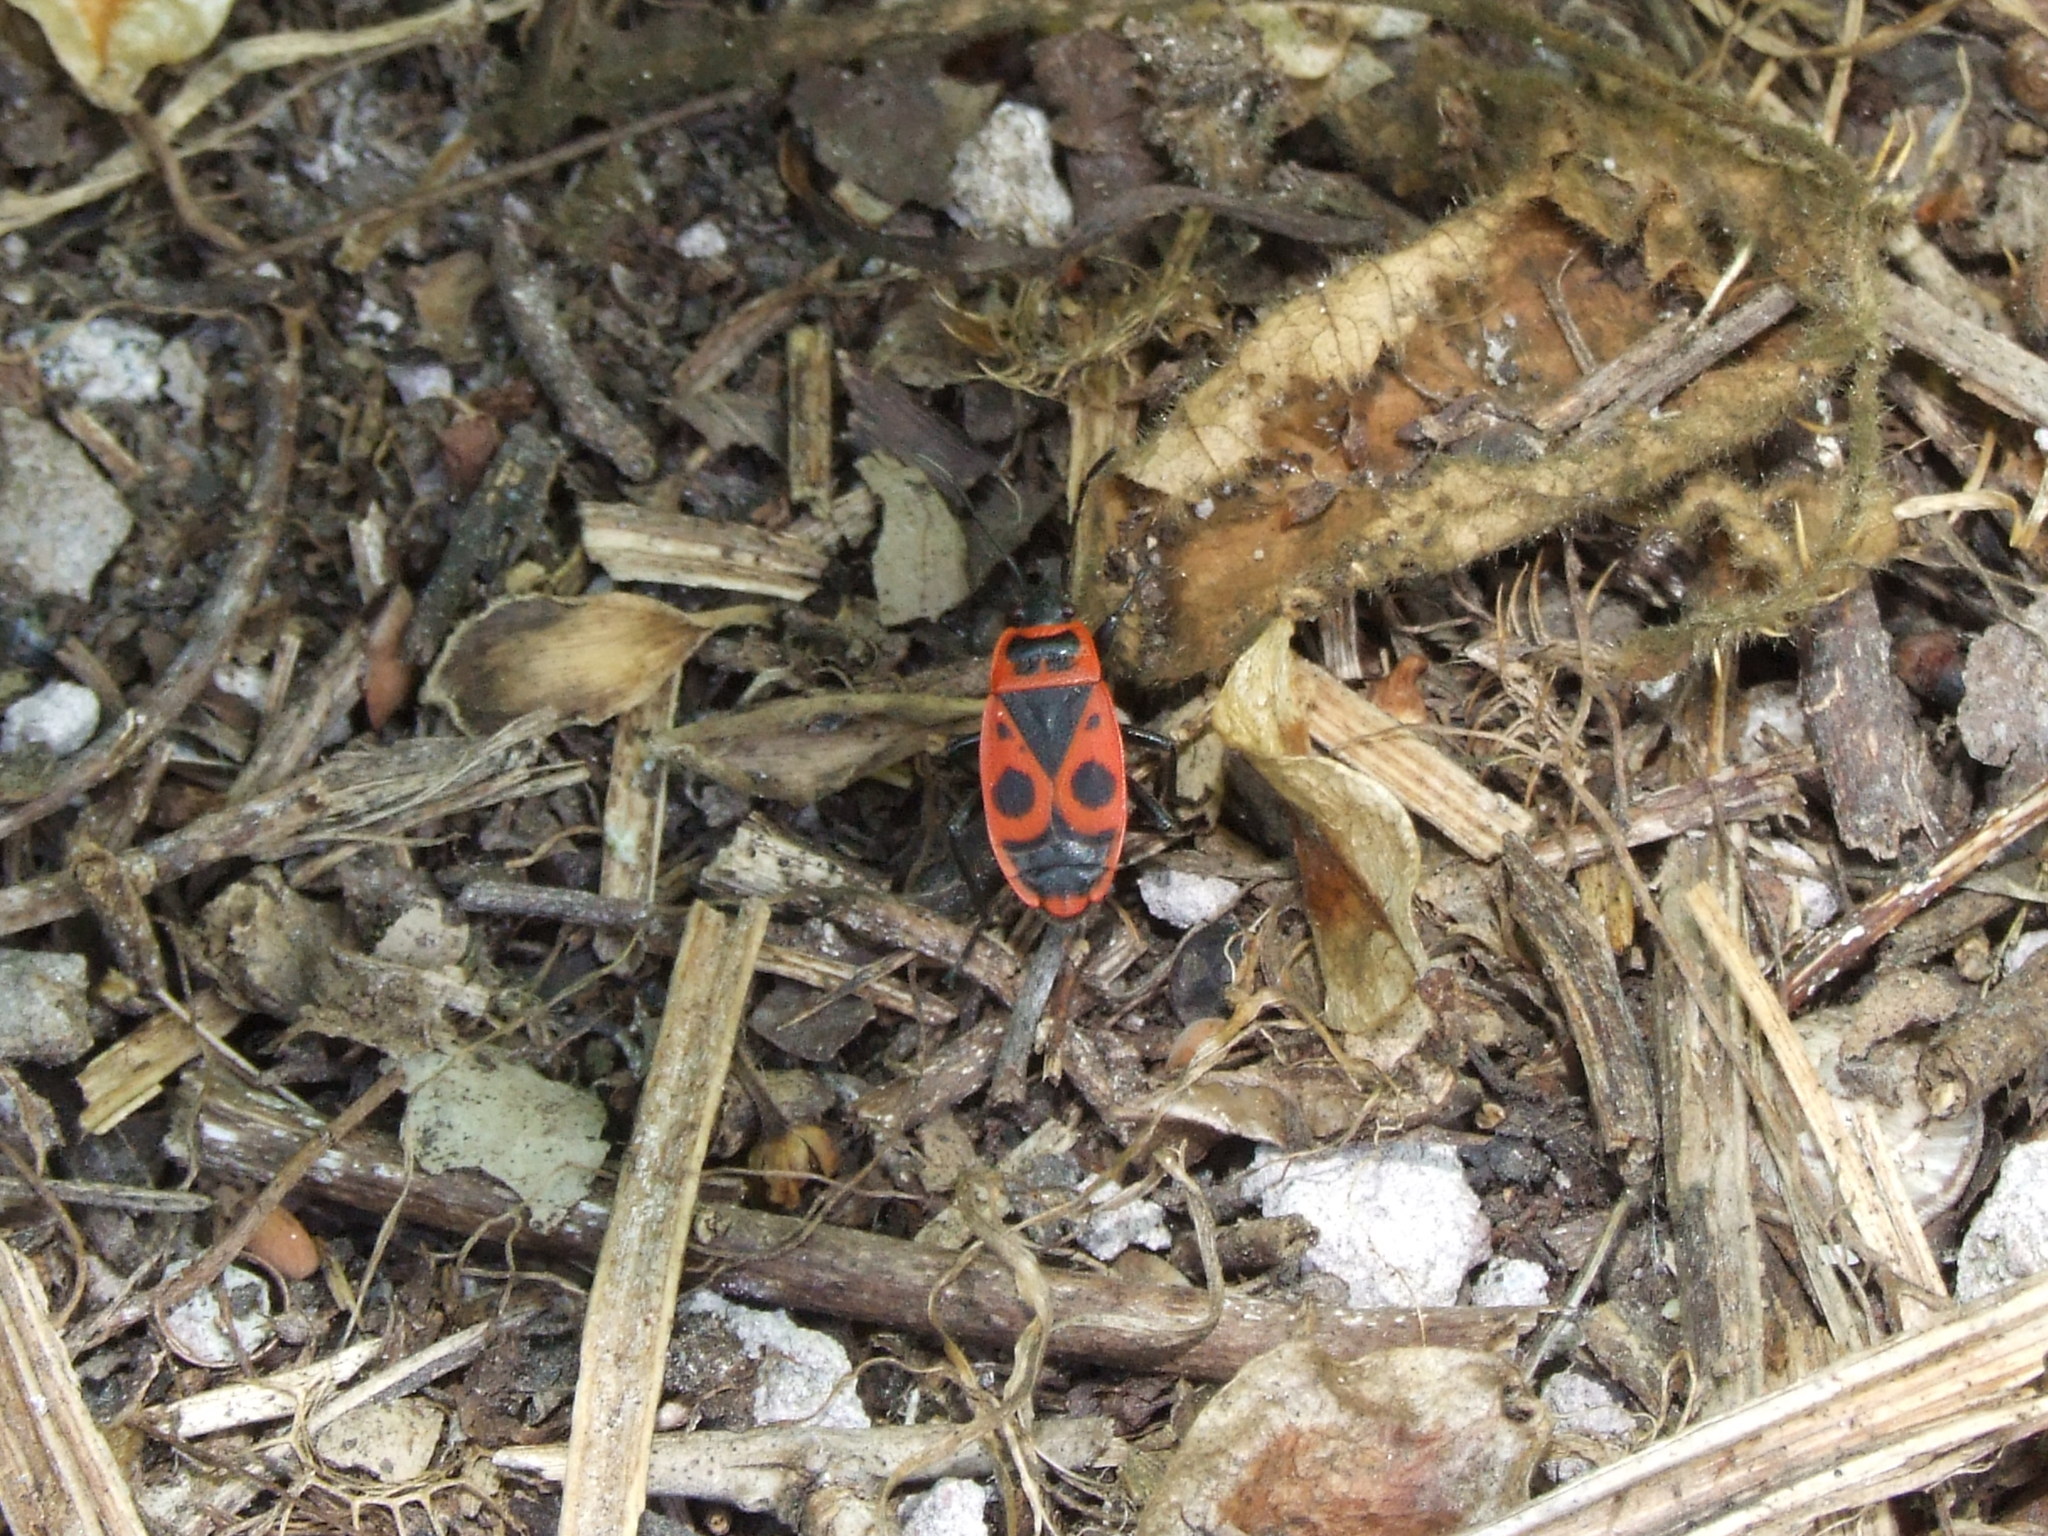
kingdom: Animalia
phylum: Arthropoda
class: Insecta
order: Hemiptera
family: Pyrrhocoridae
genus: Pyrrhocoris
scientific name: Pyrrhocoris apterus
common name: Firebug
